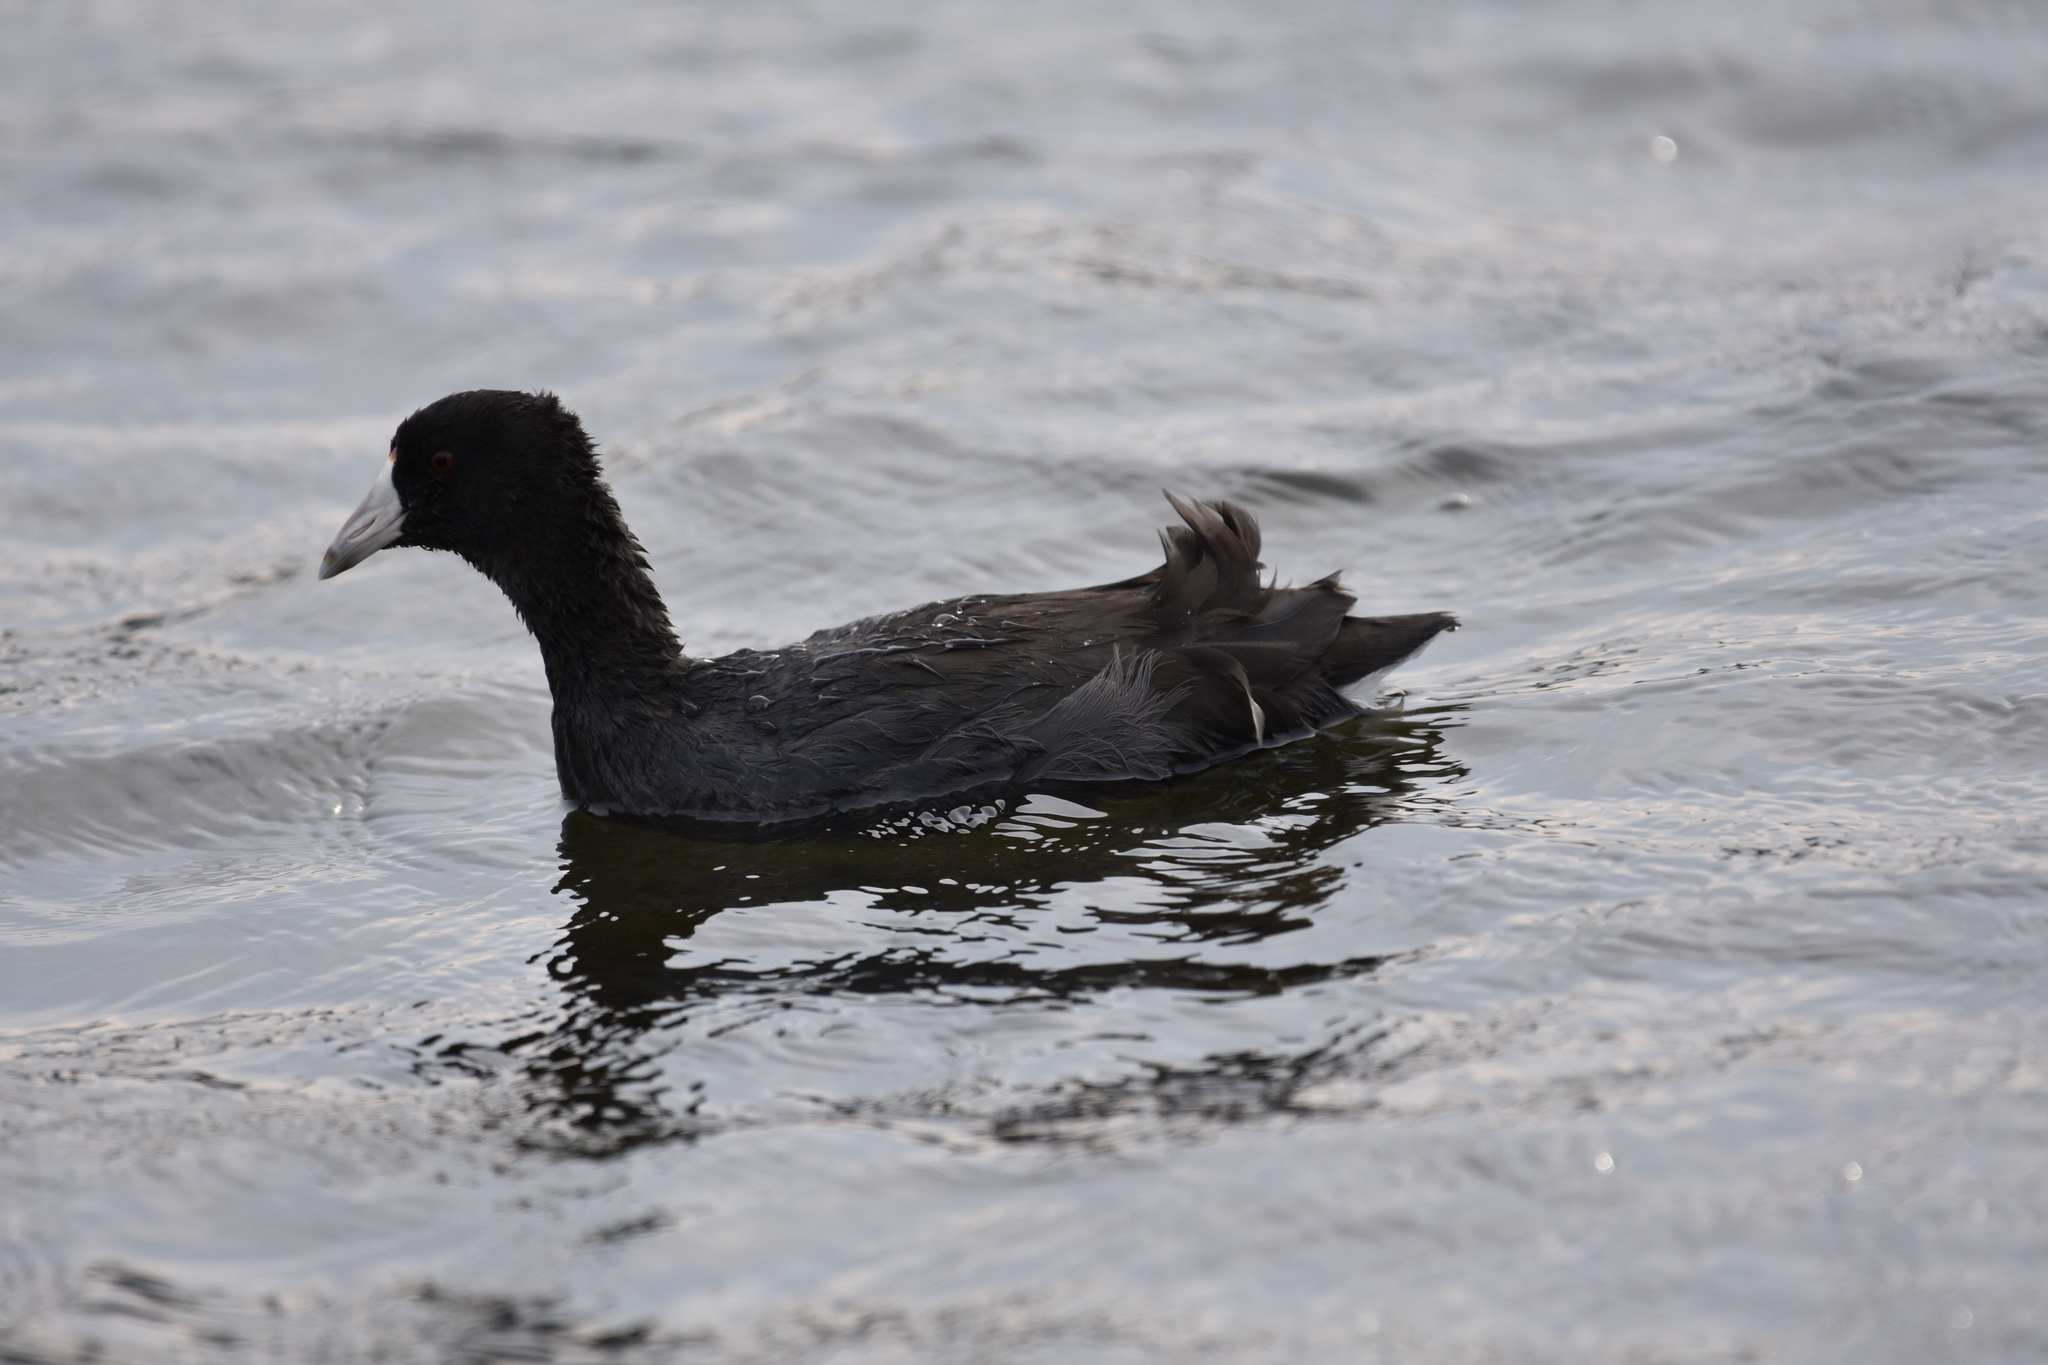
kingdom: Animalia
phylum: Chordata
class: Aves
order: Gruiformes
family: Rallidae
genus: Fulica
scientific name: Fulica americana
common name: American coot
